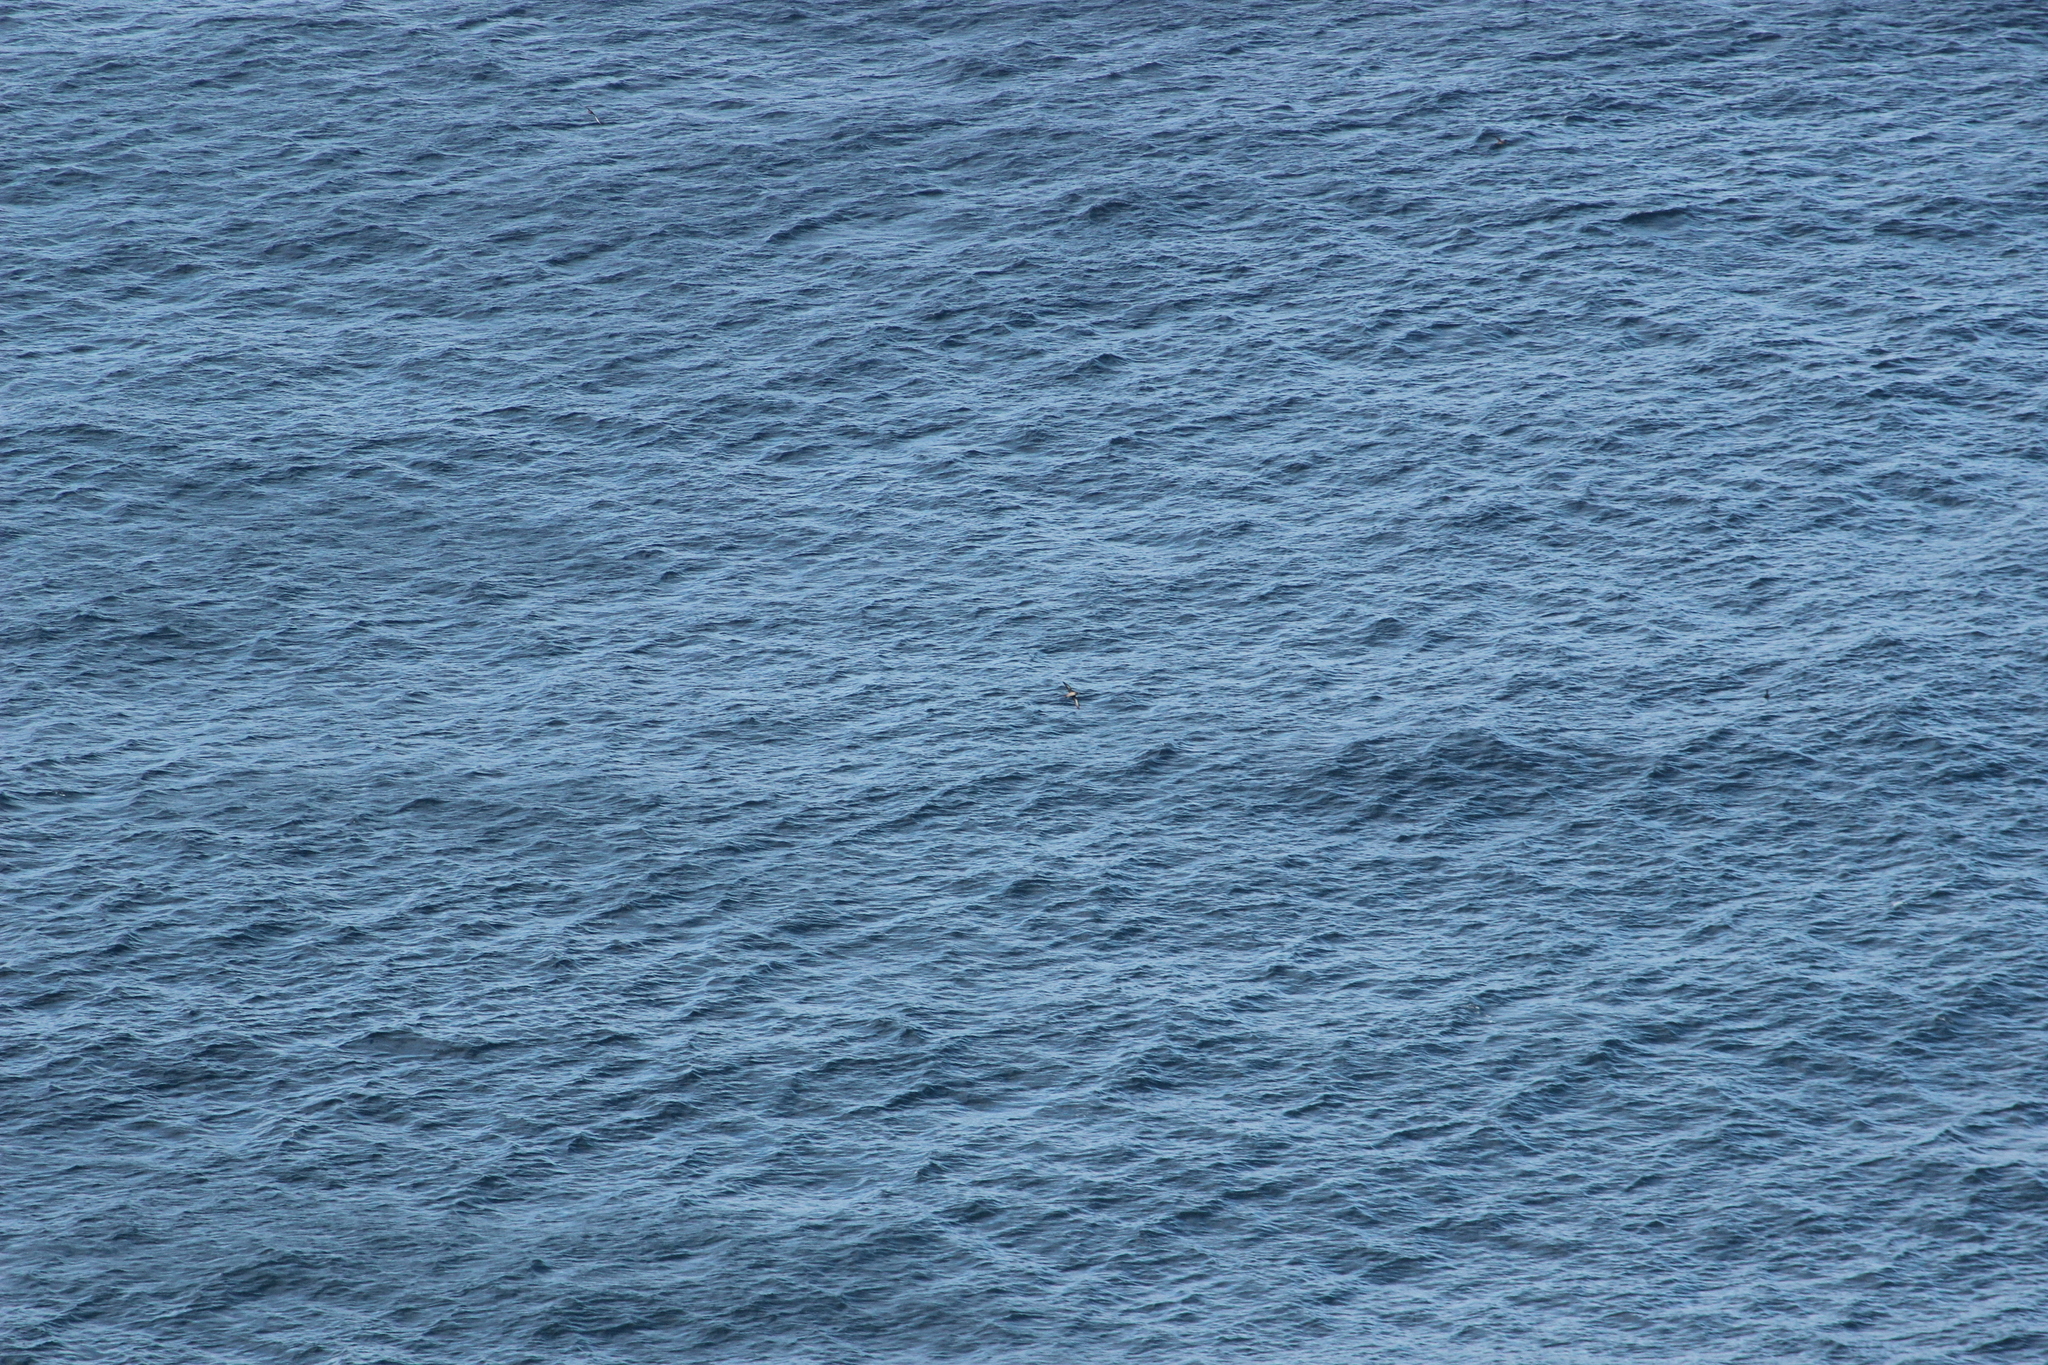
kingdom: Animalia
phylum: Chordata
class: Aves
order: Procellariiformes
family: Procellariidae
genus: Puffinus
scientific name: Puffinus griseus
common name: Sooty shearwater
